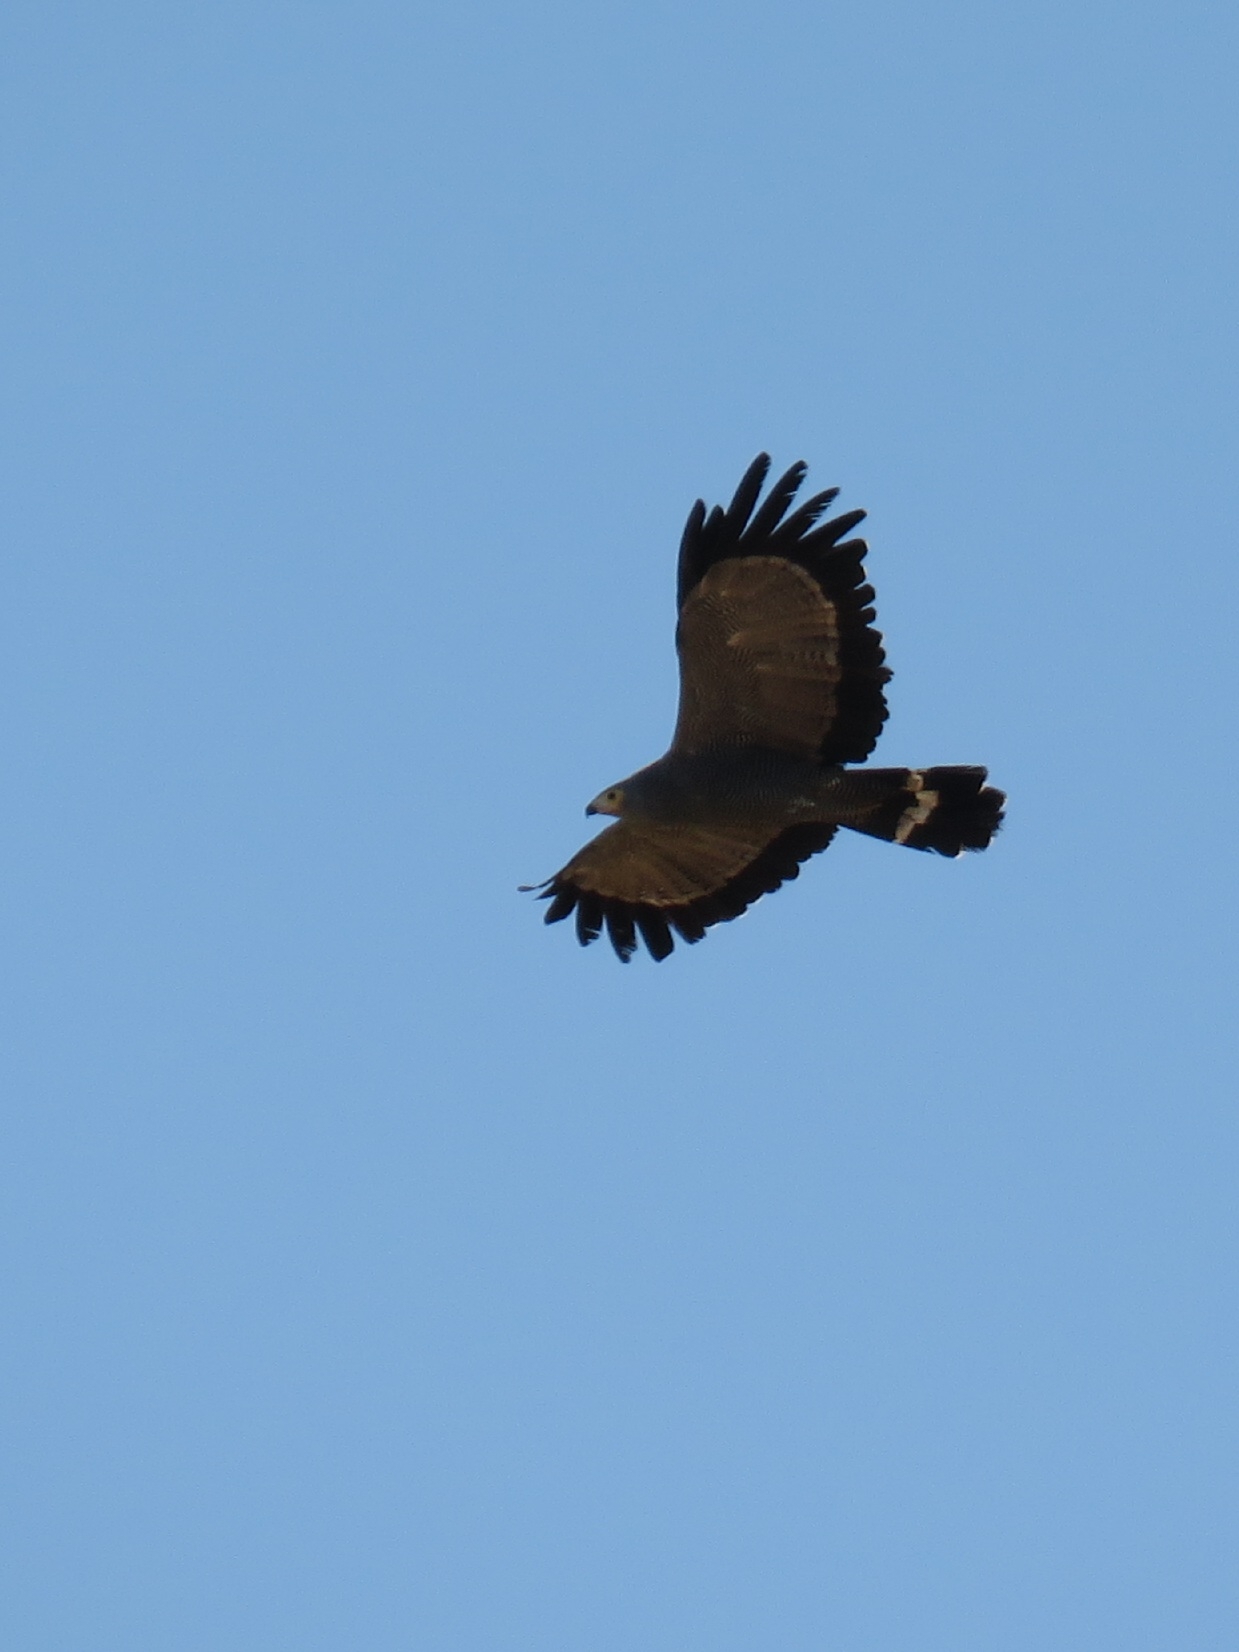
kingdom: Animalia
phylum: Chordata
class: Aves
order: Accipitriformes
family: Accipitridae
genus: Polyboroides
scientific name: Polyboroides typus
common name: African harrier-hawk
